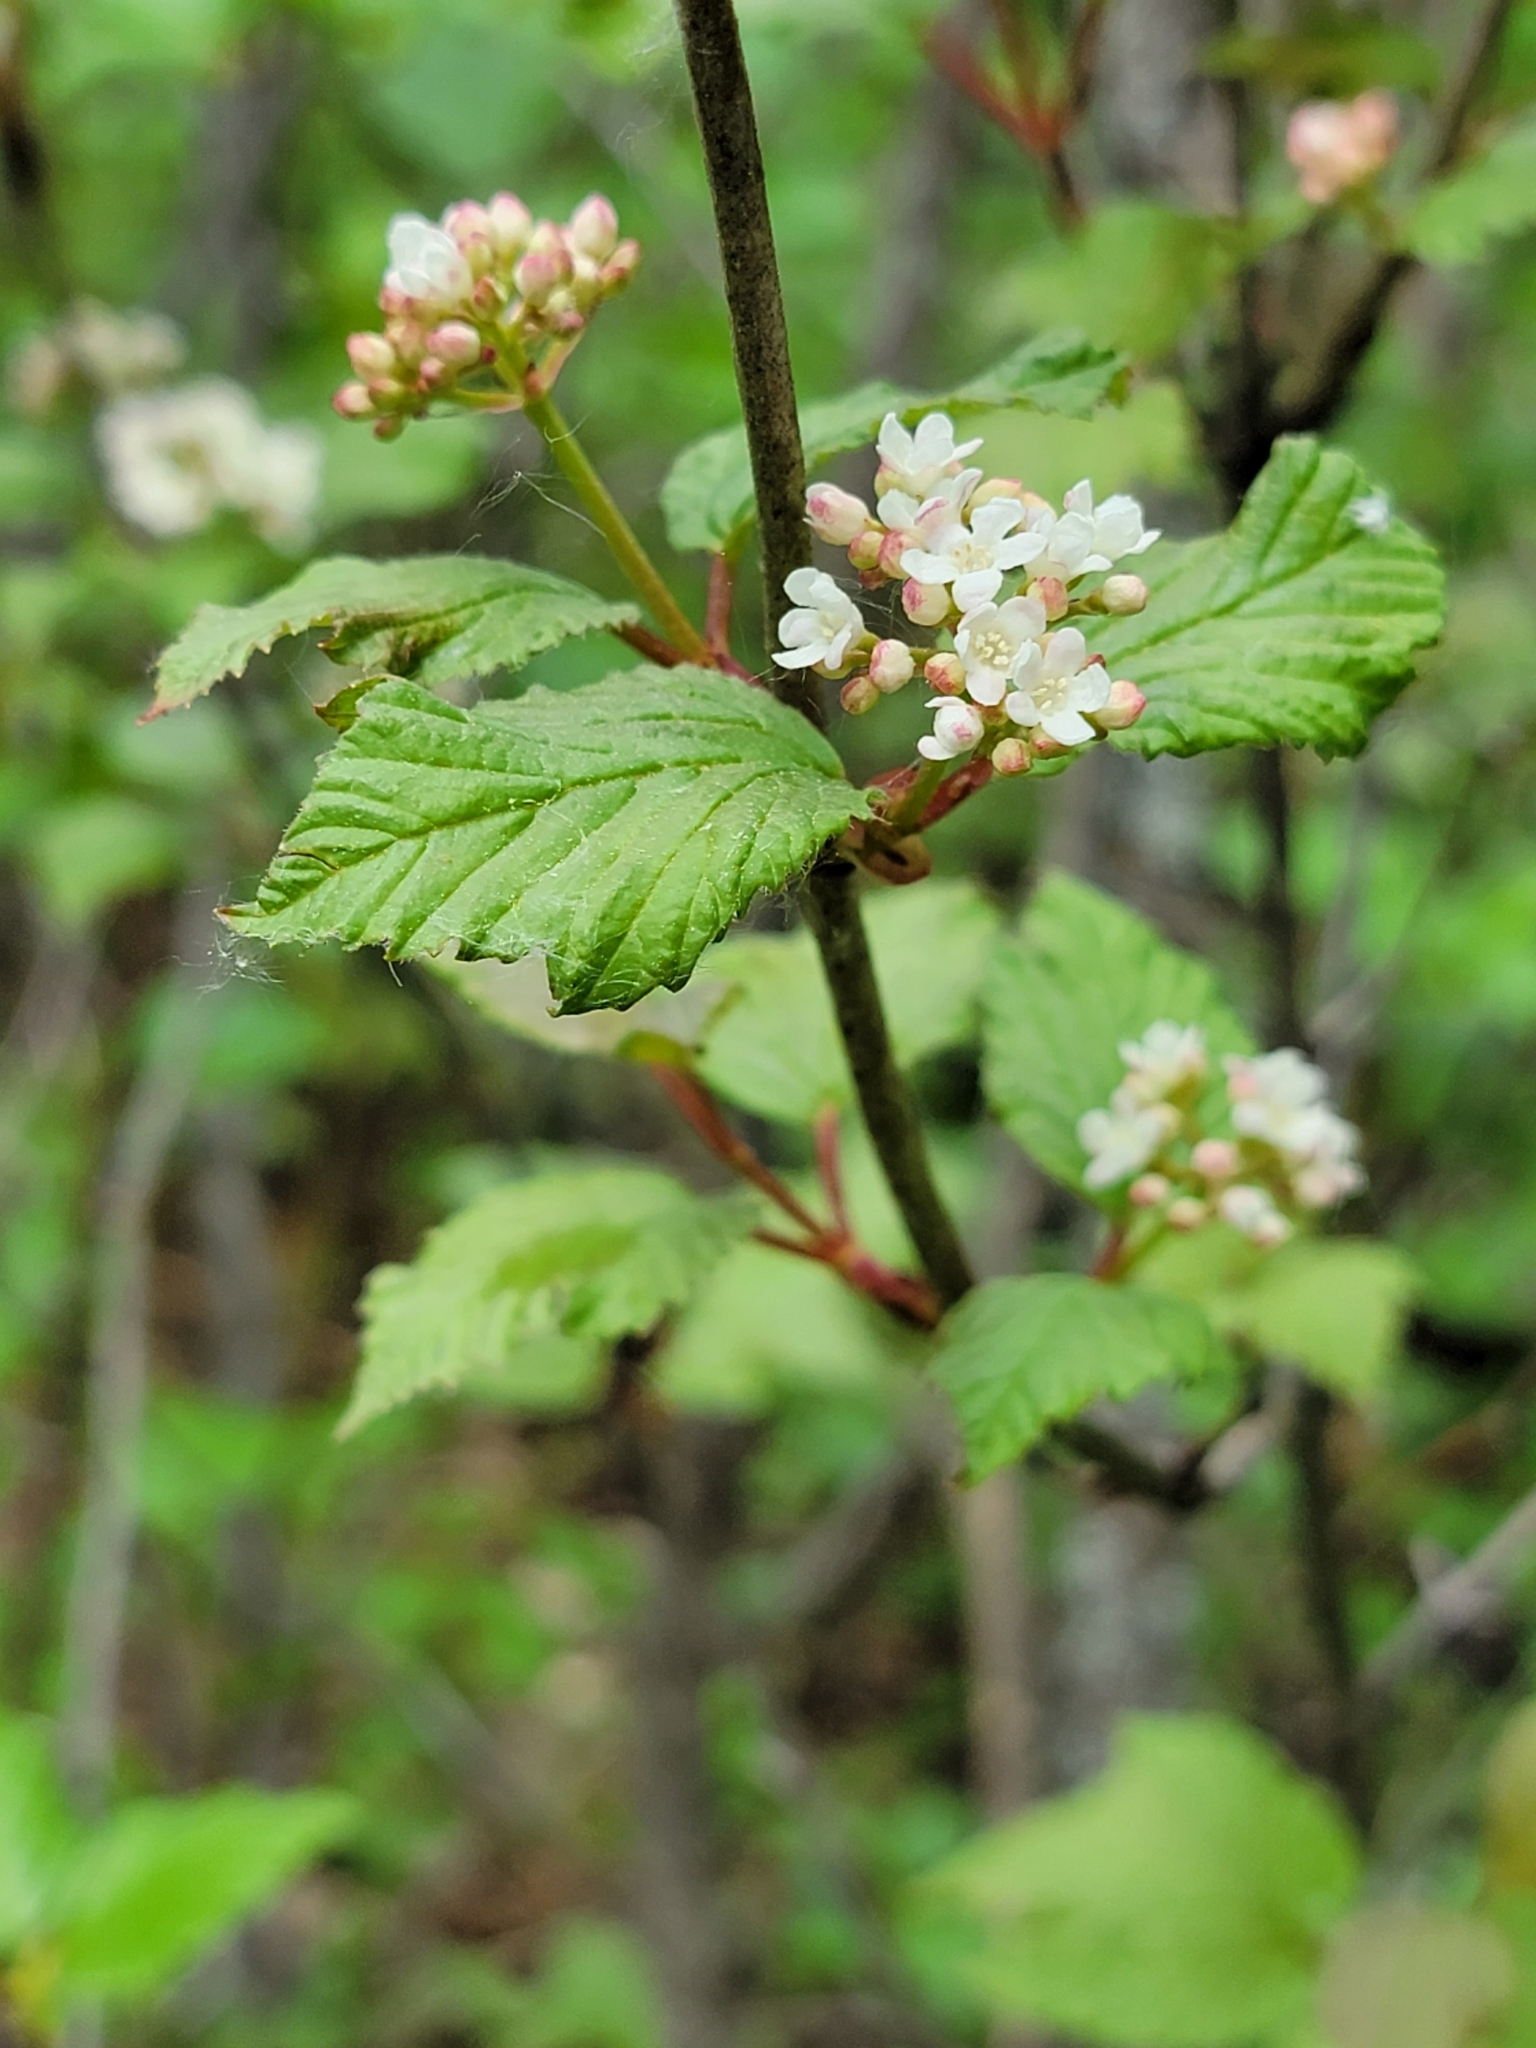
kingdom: Plantae
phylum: Tracheophyta
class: Magnoliopsida
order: Dipsacales
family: Viburnaceae
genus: Viburnum
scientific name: Viburnum edule
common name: Mooseberry
